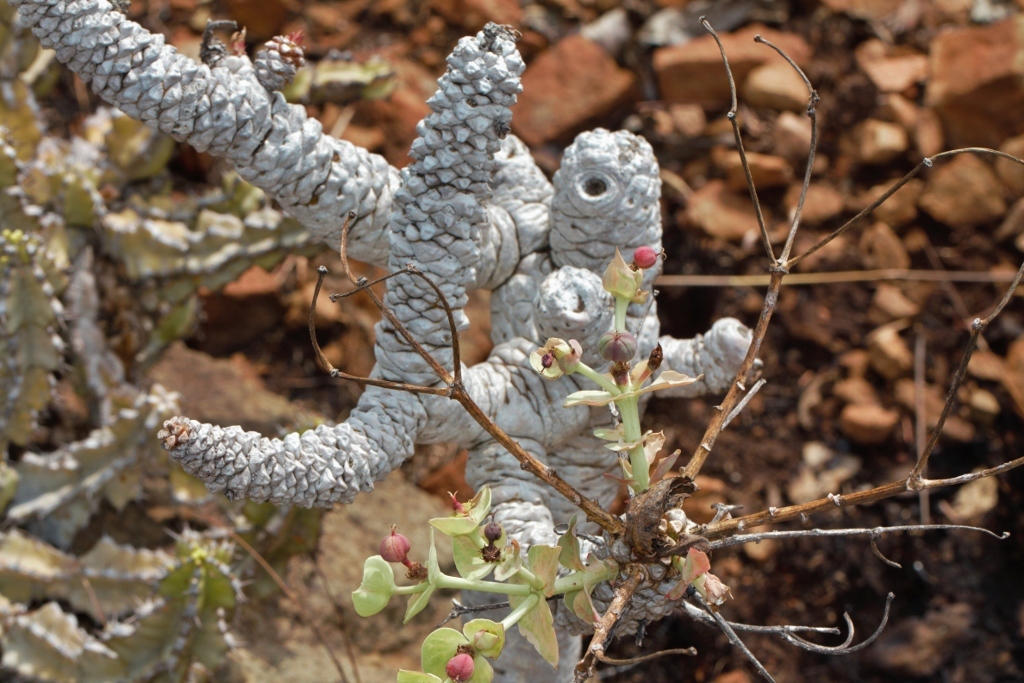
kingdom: Plantae
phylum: Tracheophyta
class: Magnoliopsida
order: Malpighiales
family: Euphorbiaceae
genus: Euphorbia
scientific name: Euphorbia wildii
